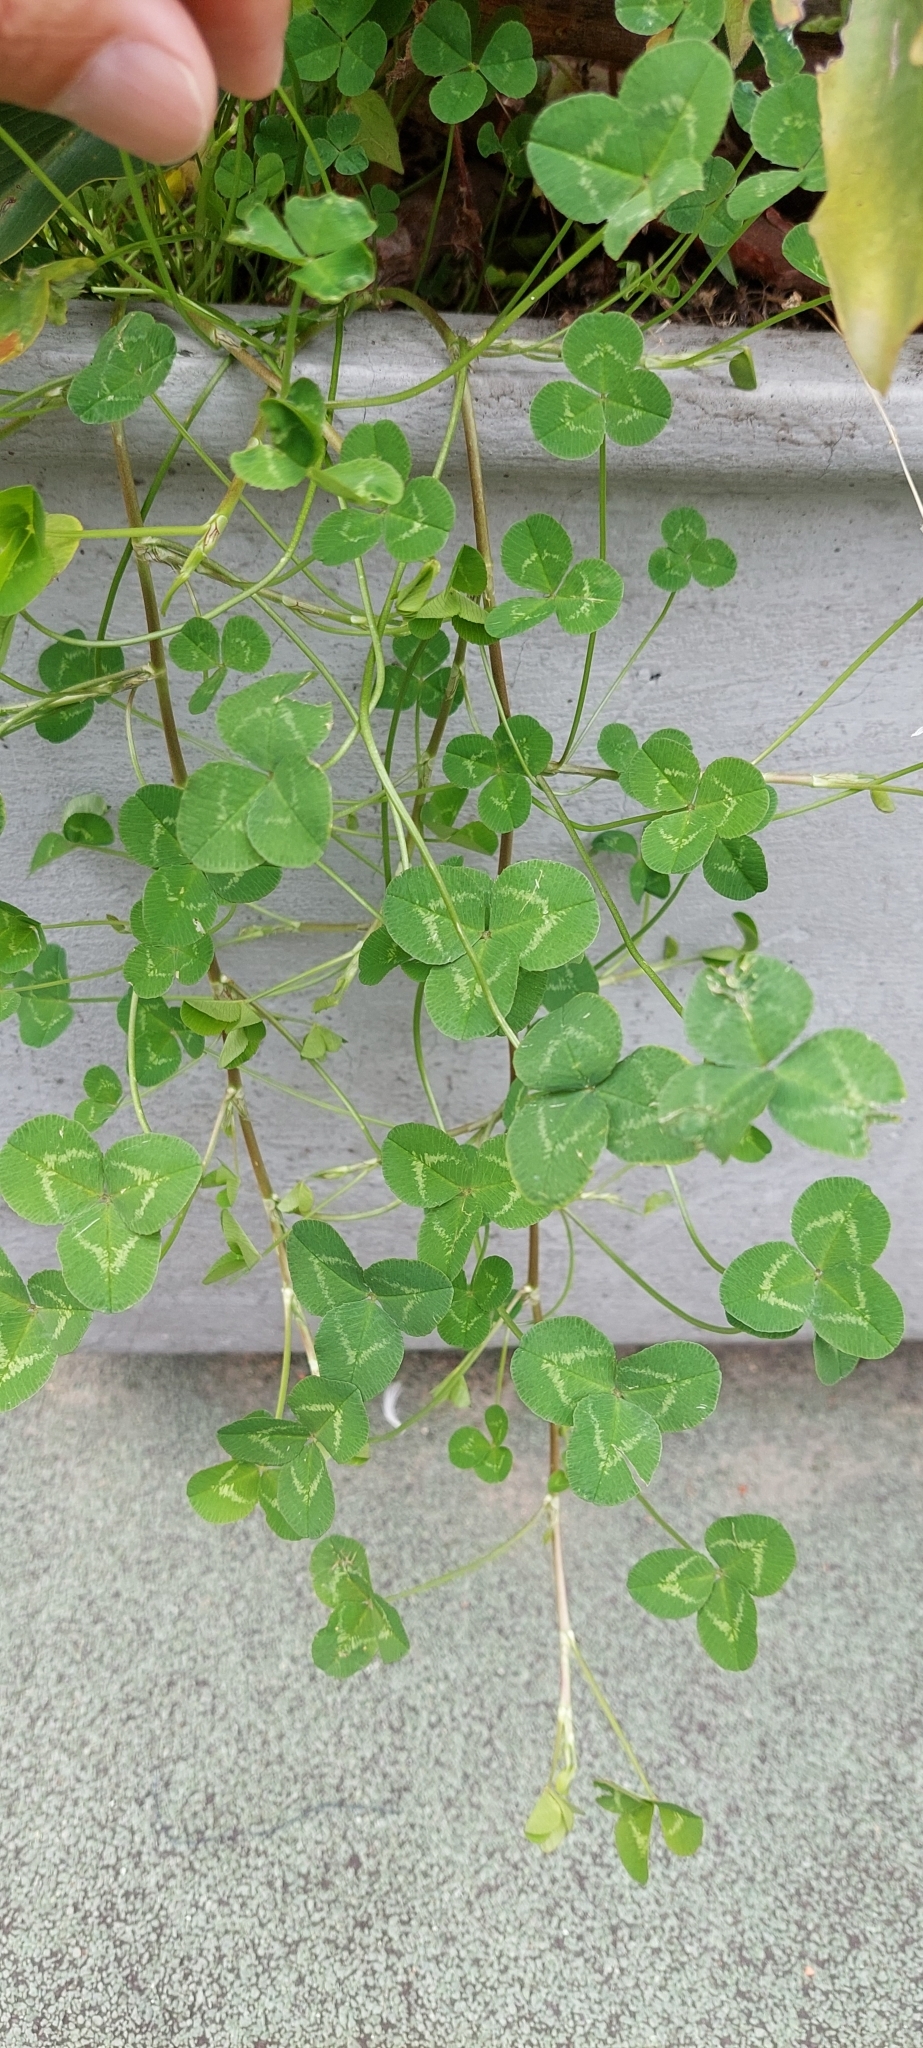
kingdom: Plantae
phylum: Tracheophyta
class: Magnoliopsida
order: Fabales
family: Fabaceae
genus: Trifolium
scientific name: Trifolium repens
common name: White clover
